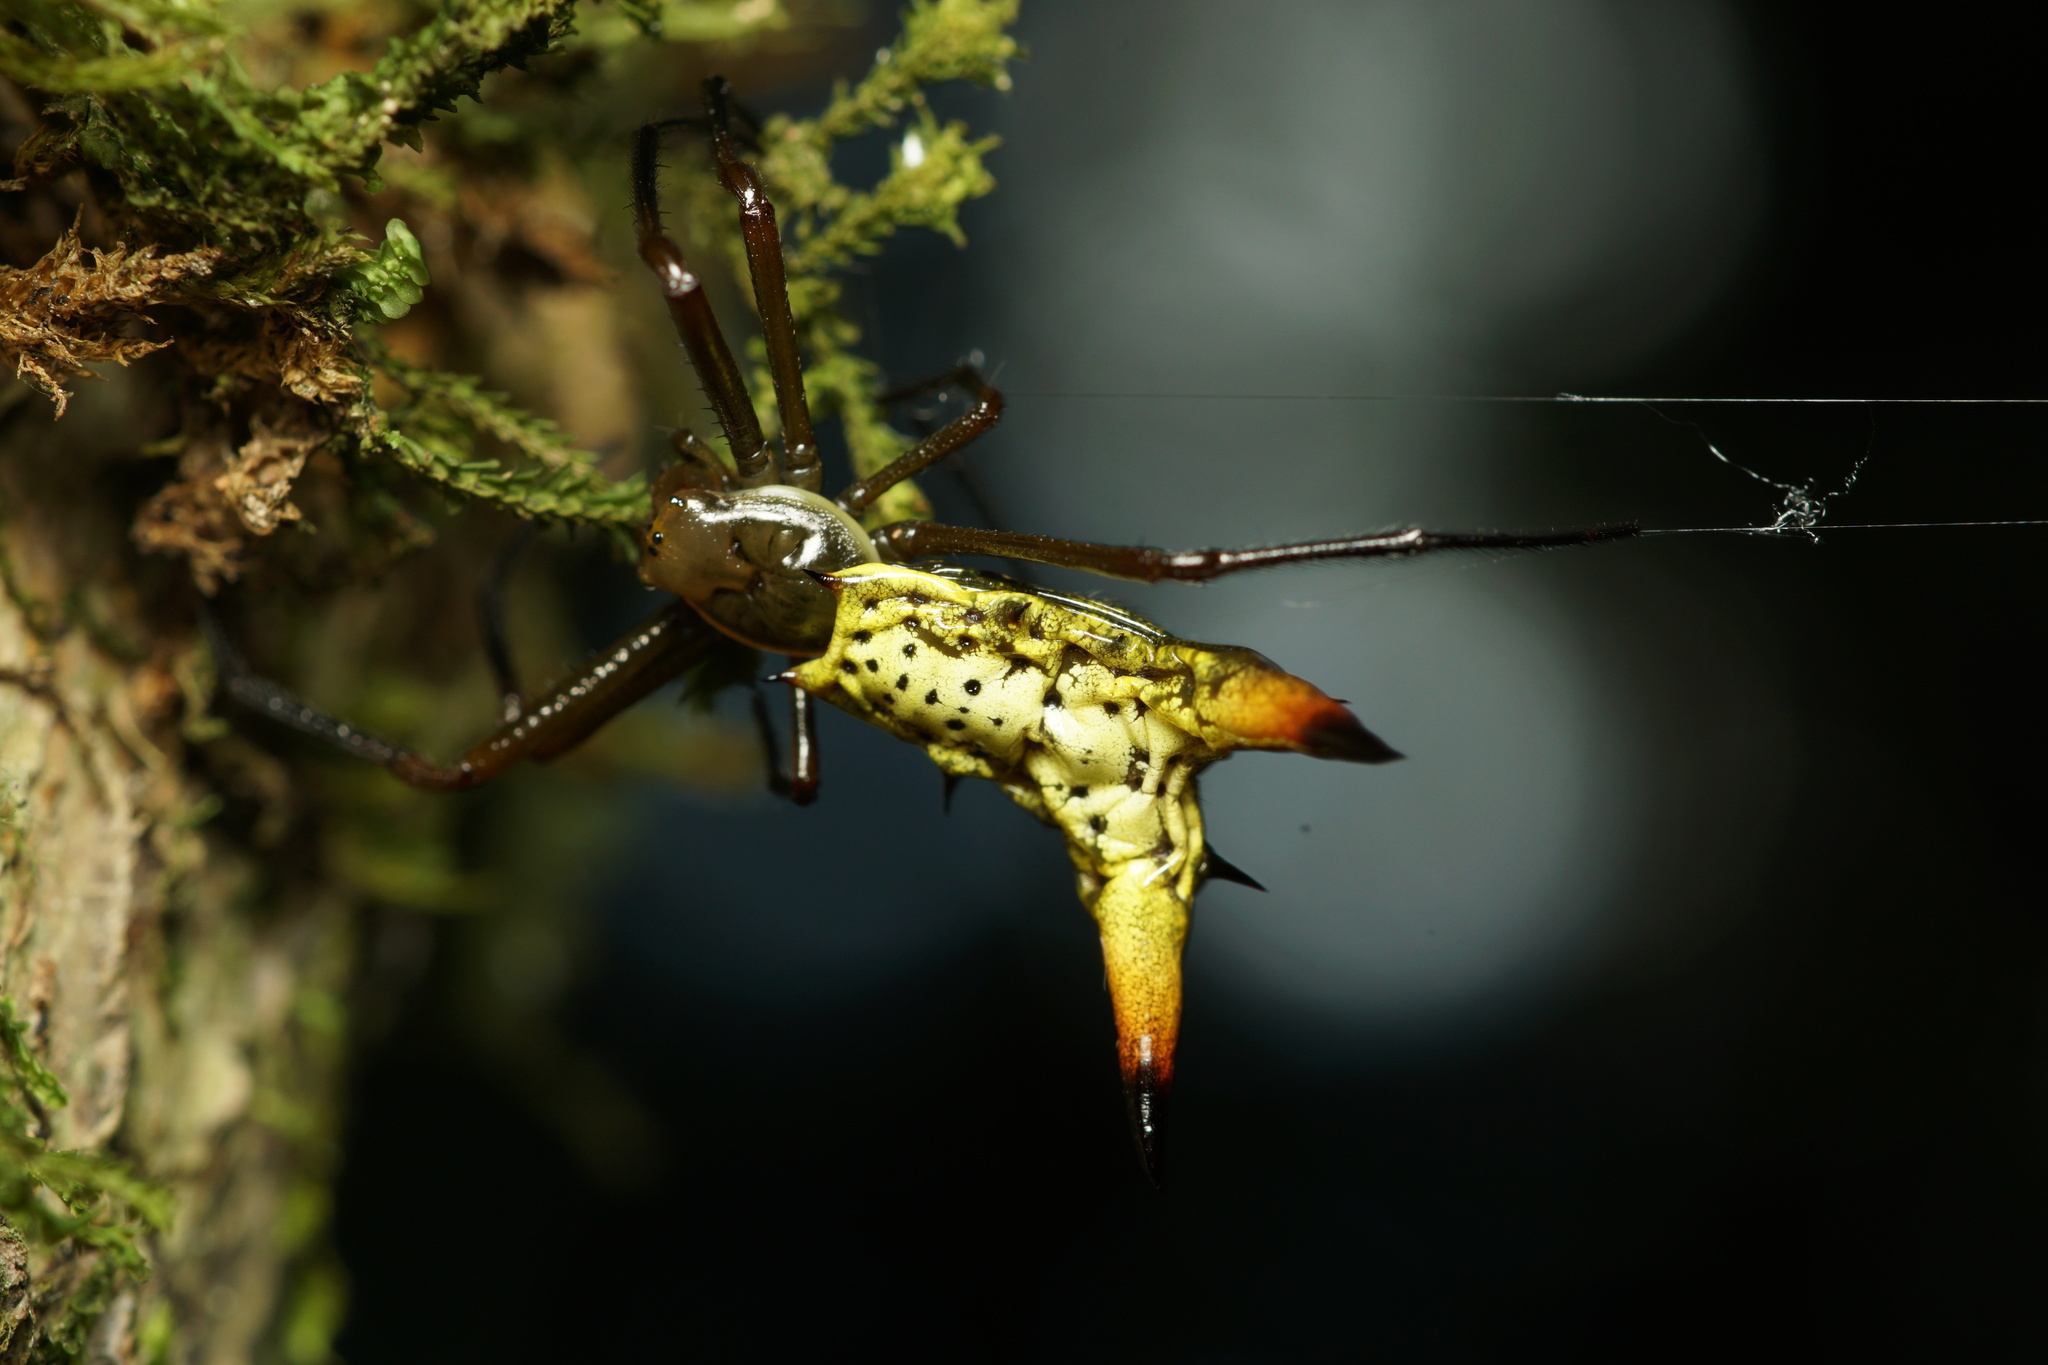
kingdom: Animalia
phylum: Arthropoda
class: Arachnida
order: Araneae
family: Araneidae
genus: Micrathena
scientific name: Micrathena crassispina
